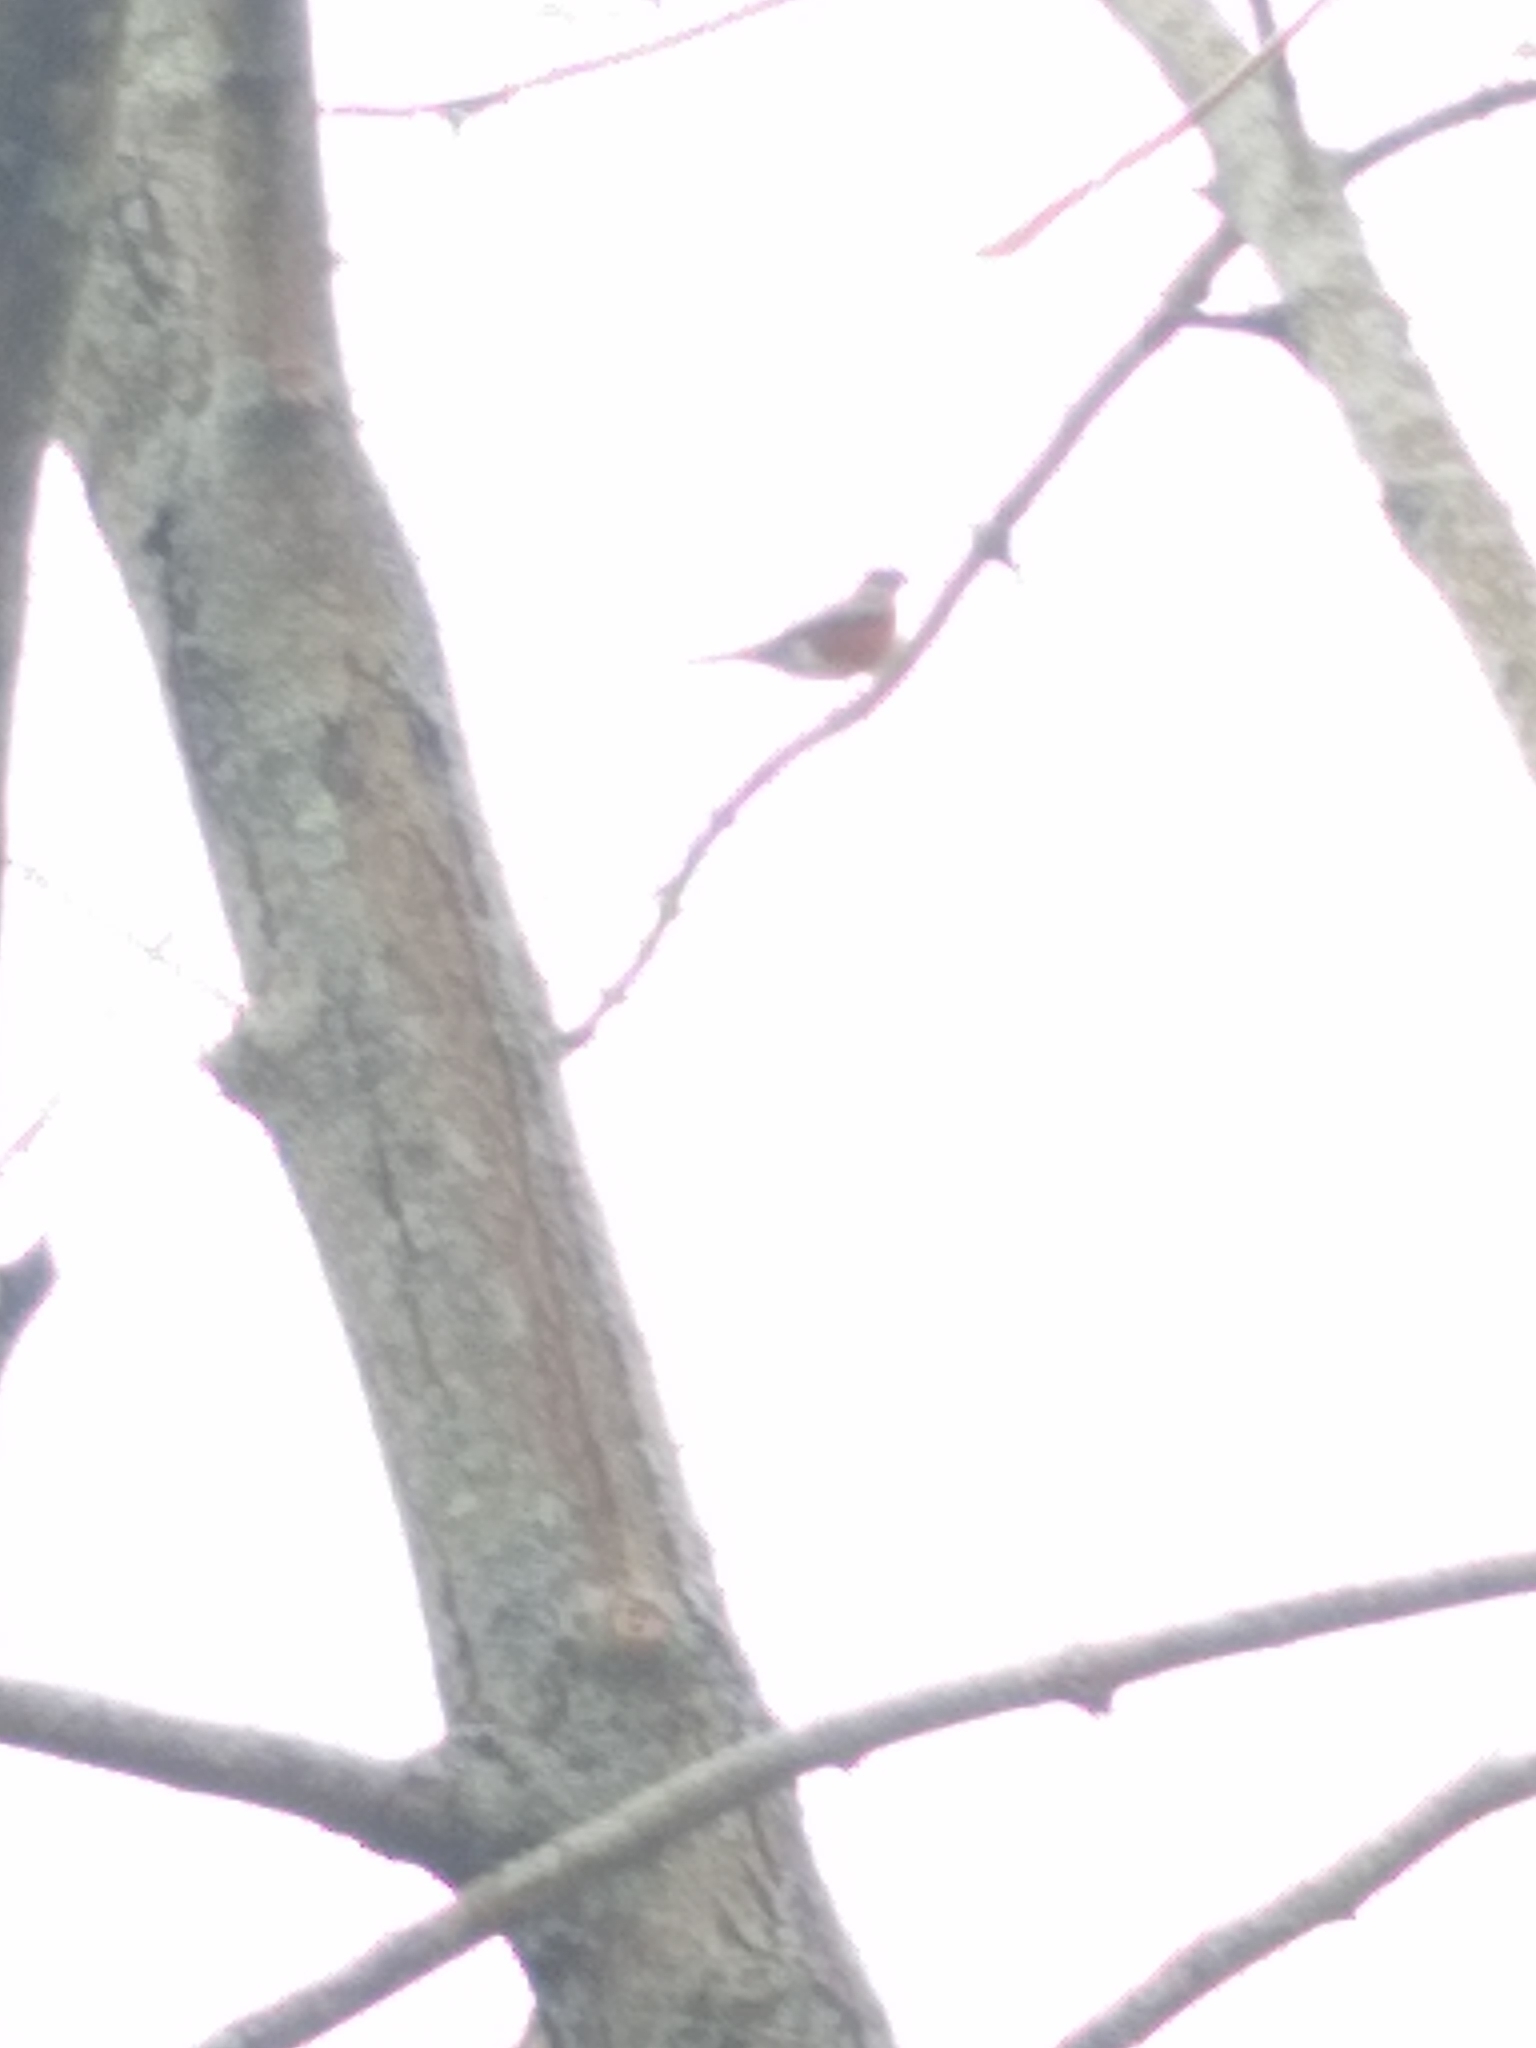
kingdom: Animalia
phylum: Chordata
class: Aves
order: Passeriformes
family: Turdidae
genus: Turdus
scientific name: Turdus migratorius
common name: American robin
